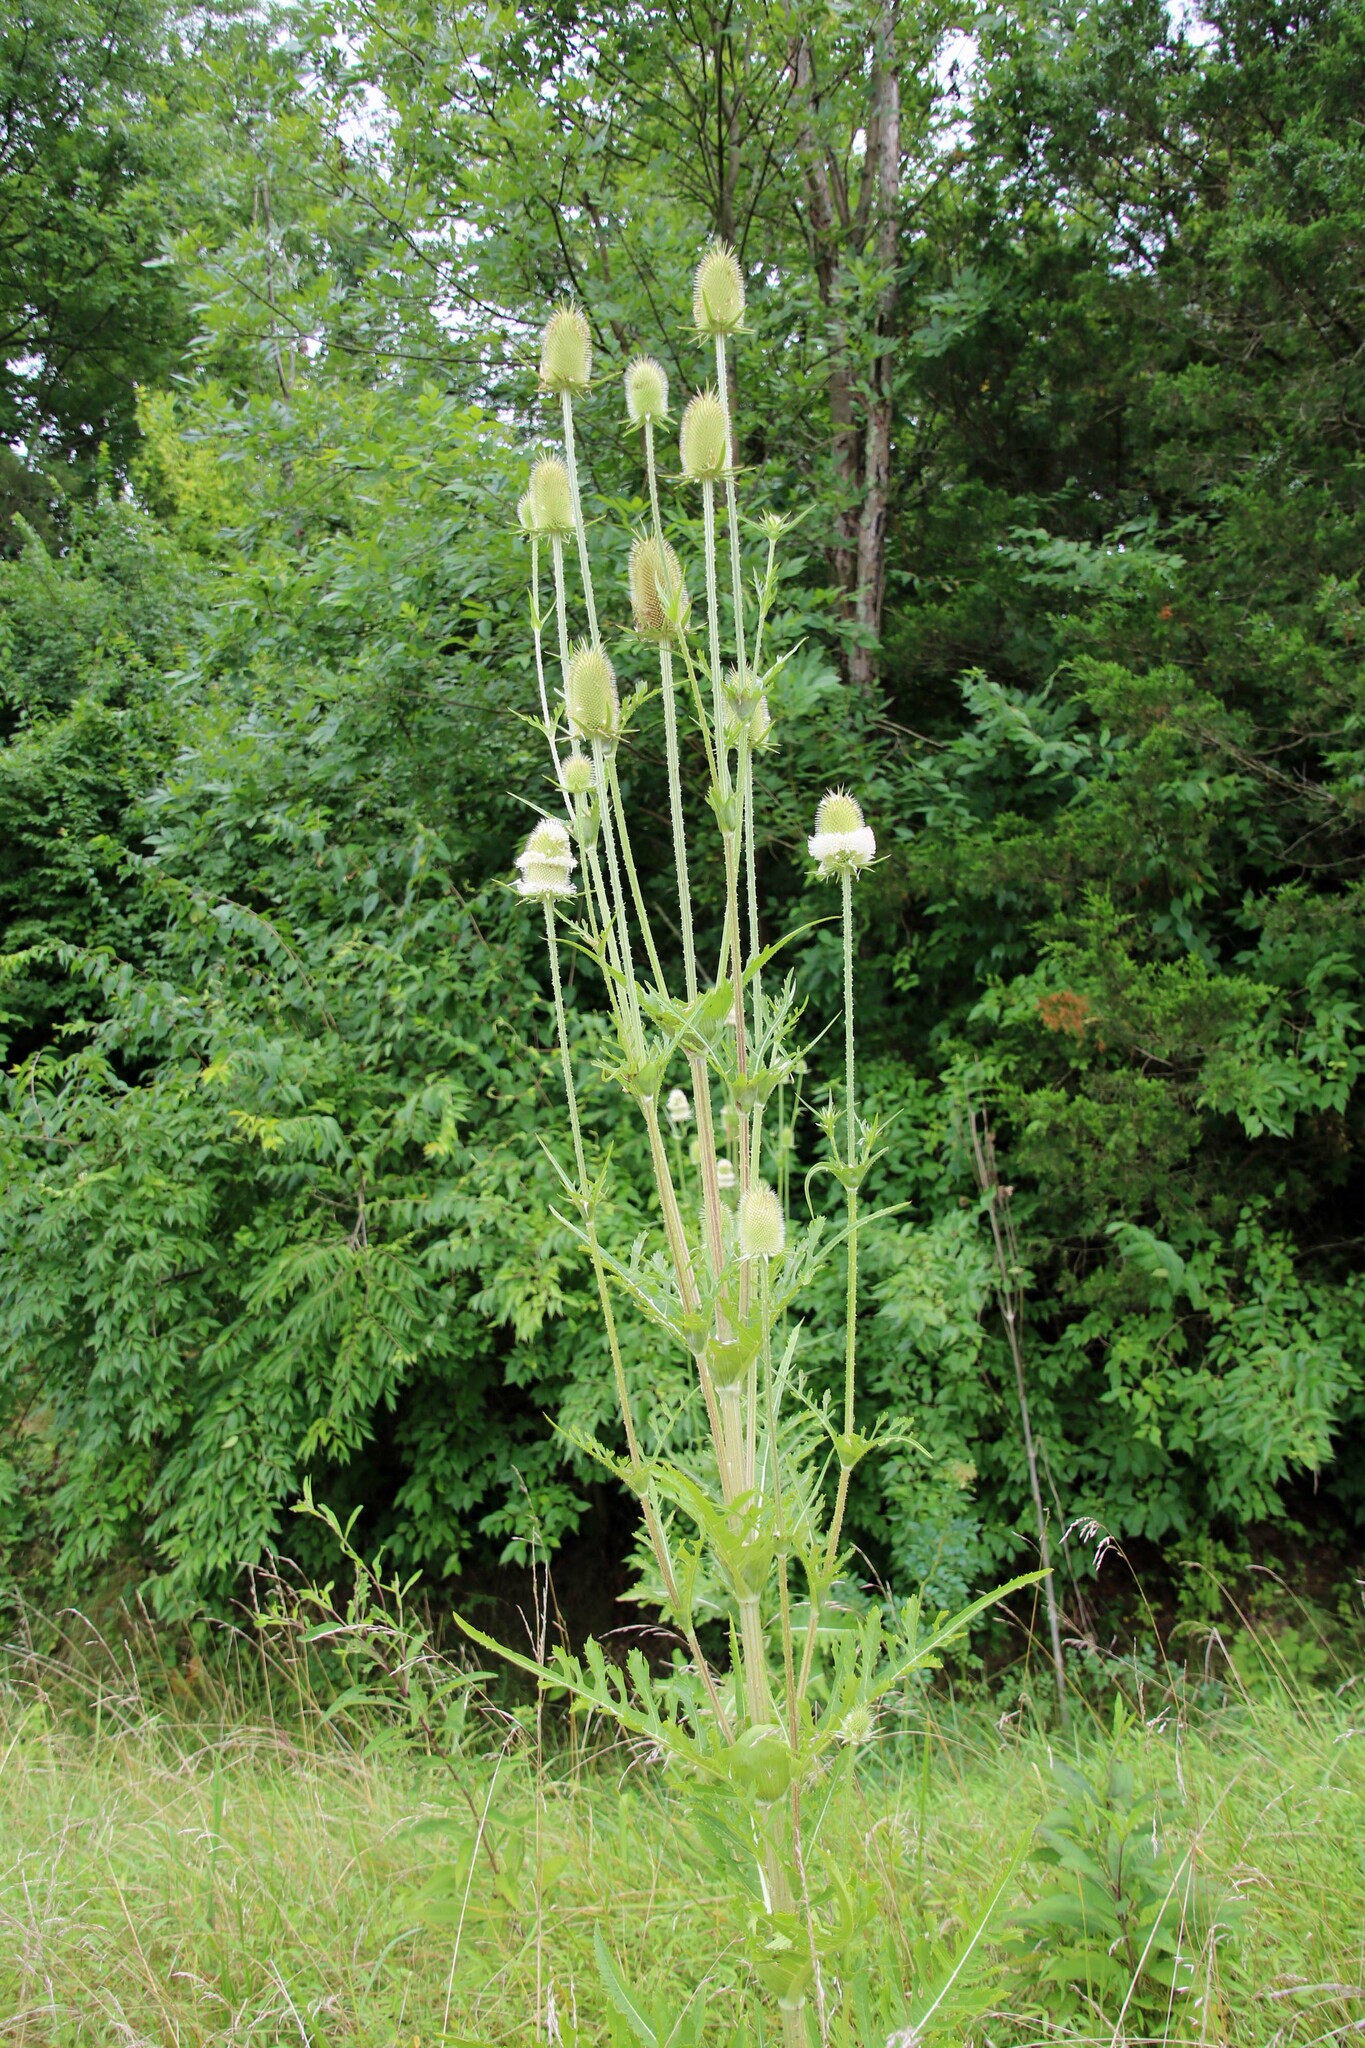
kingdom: Plantae
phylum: Tracheophyta
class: Magnoliopsida
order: Dipsacales
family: Caprifoliaceae
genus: Dipsacus
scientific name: Dipsacus laciniatus
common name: Cut-leaved teasel
